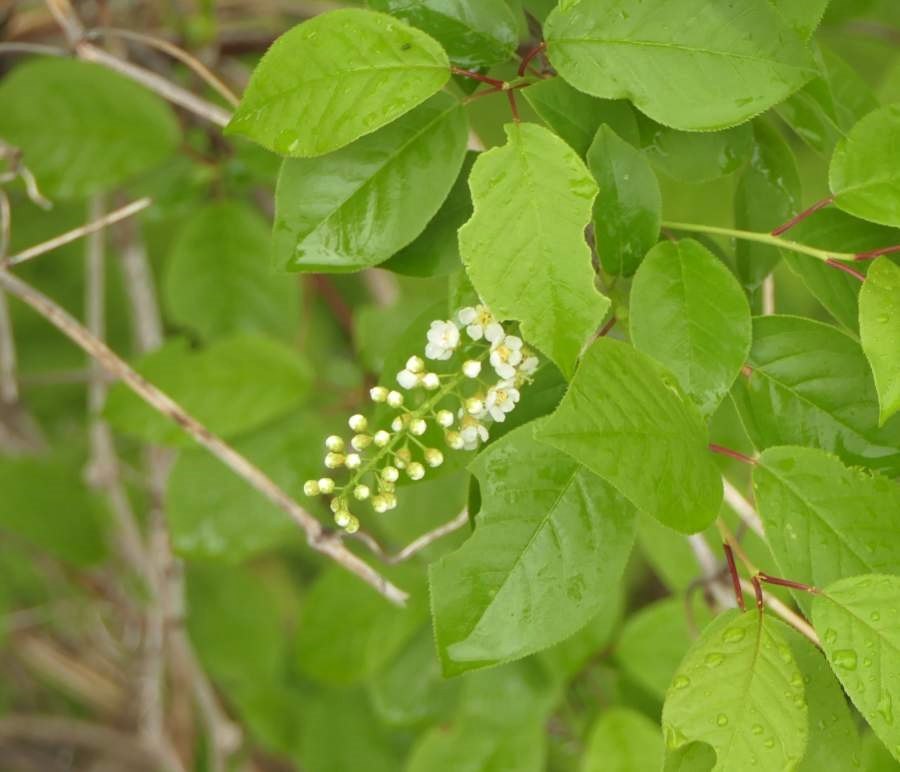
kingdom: Plantae
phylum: Tracheophyta
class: Magnoliopsida
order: Rosales
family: Rosaceae
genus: Prunus
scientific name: Prunus virginiana
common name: Chokecherry
